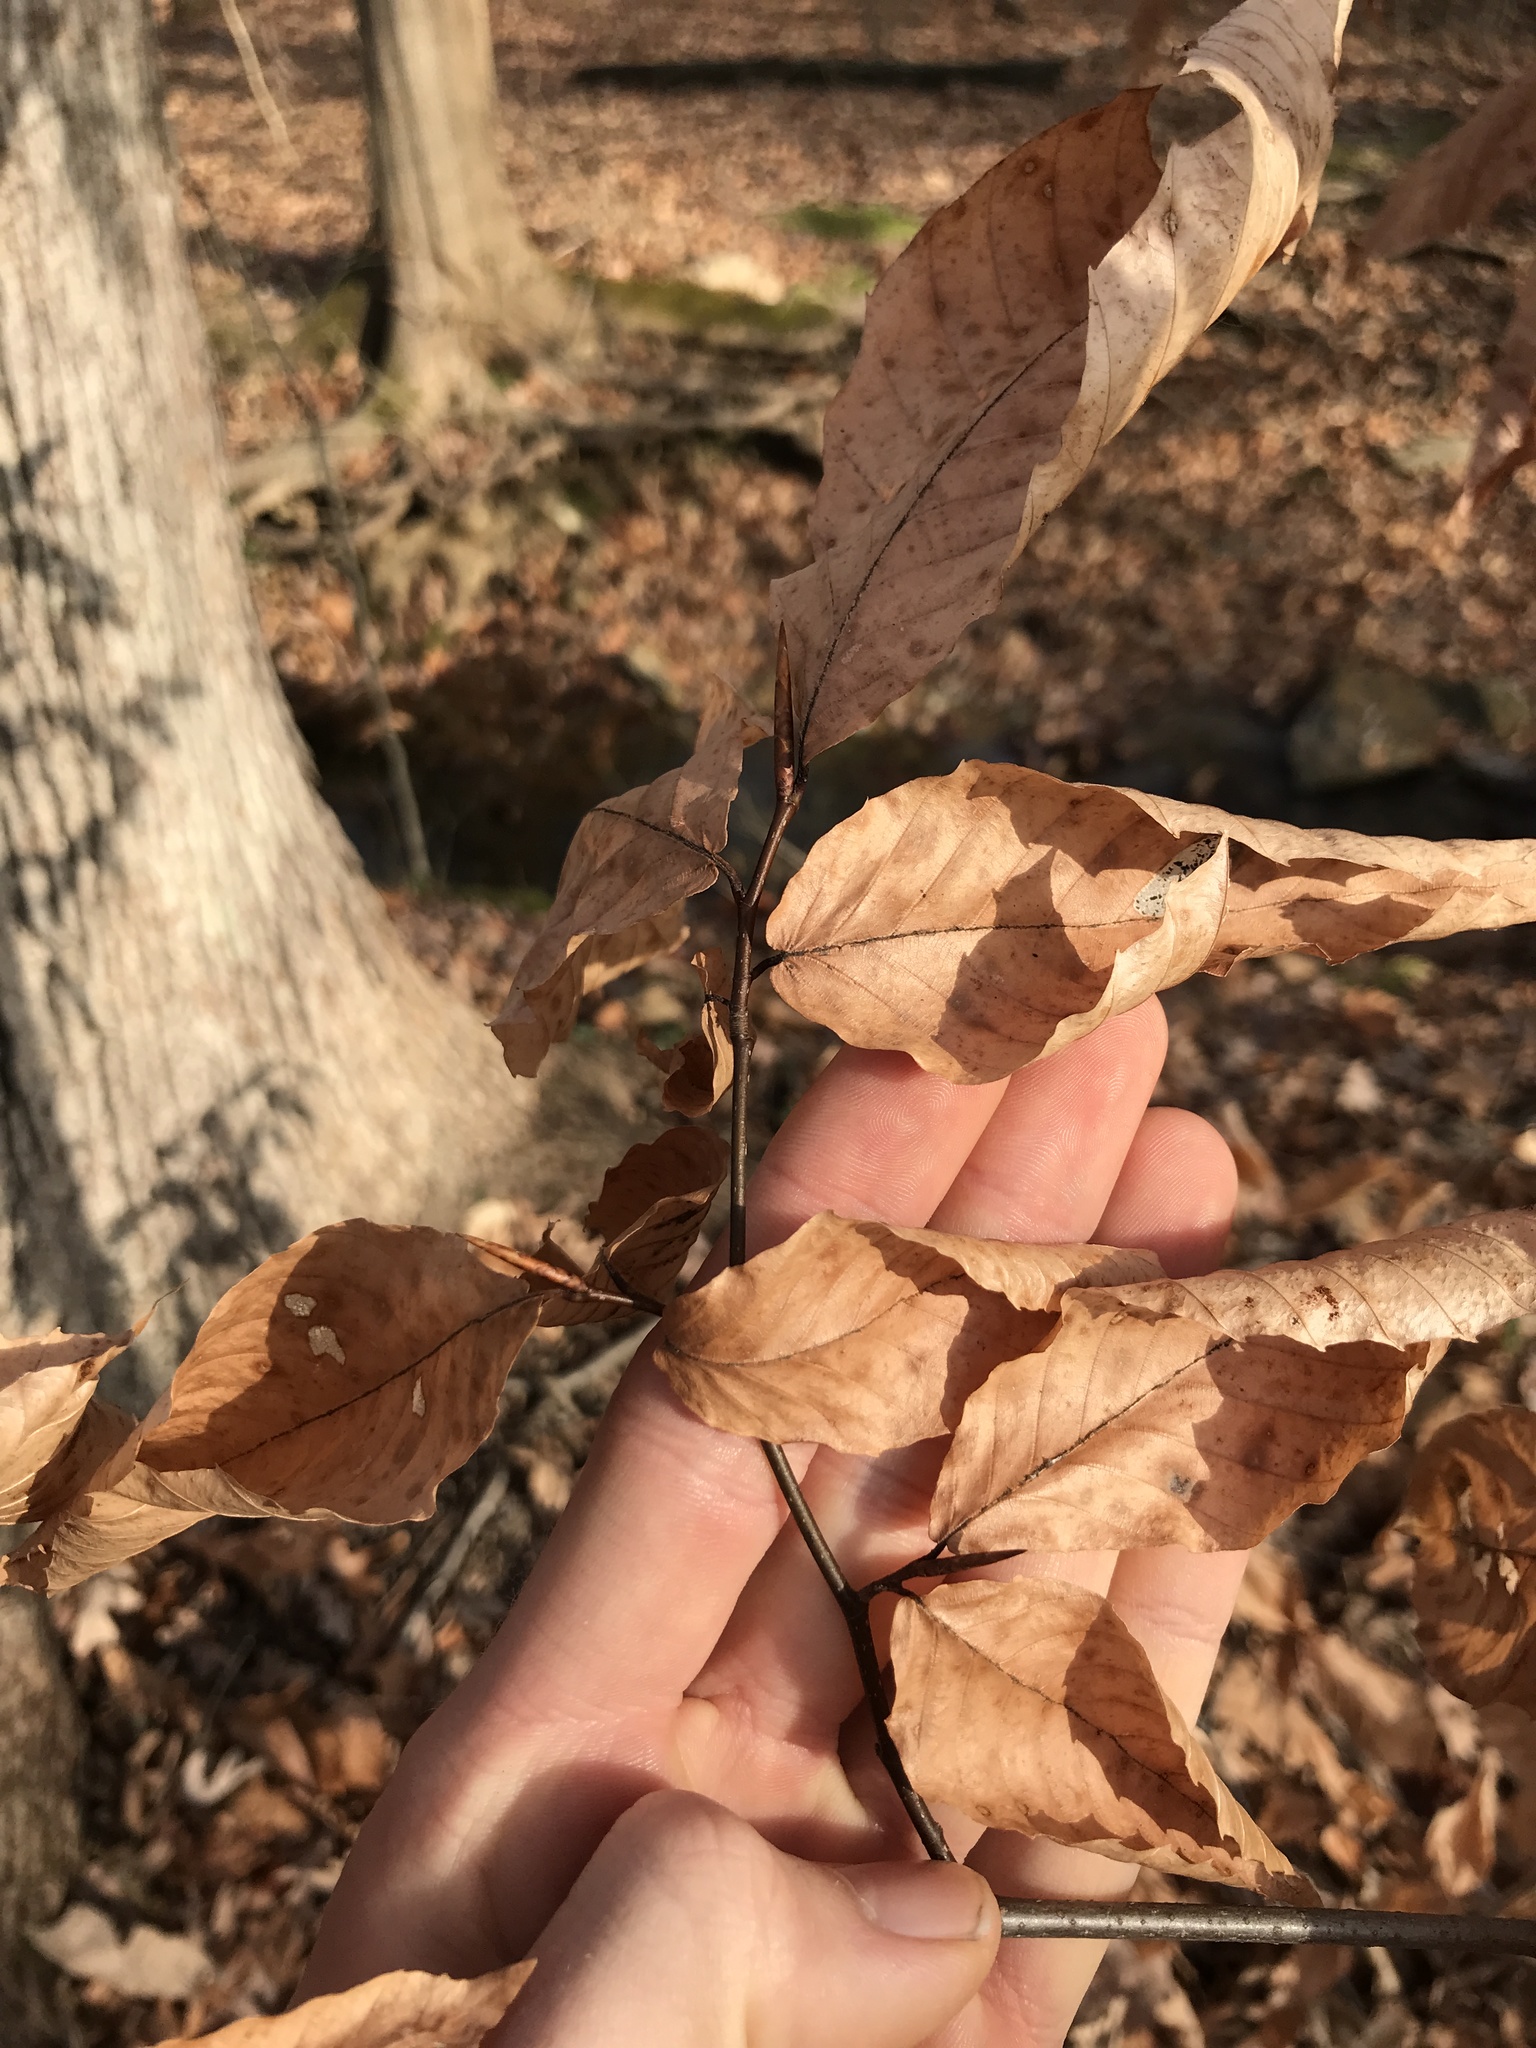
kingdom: Plantae
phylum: Tracheophyta
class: Magnoliopsida
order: Fagales
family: Fagaceae
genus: Fagus
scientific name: Fagus grandifolia
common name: American beech
